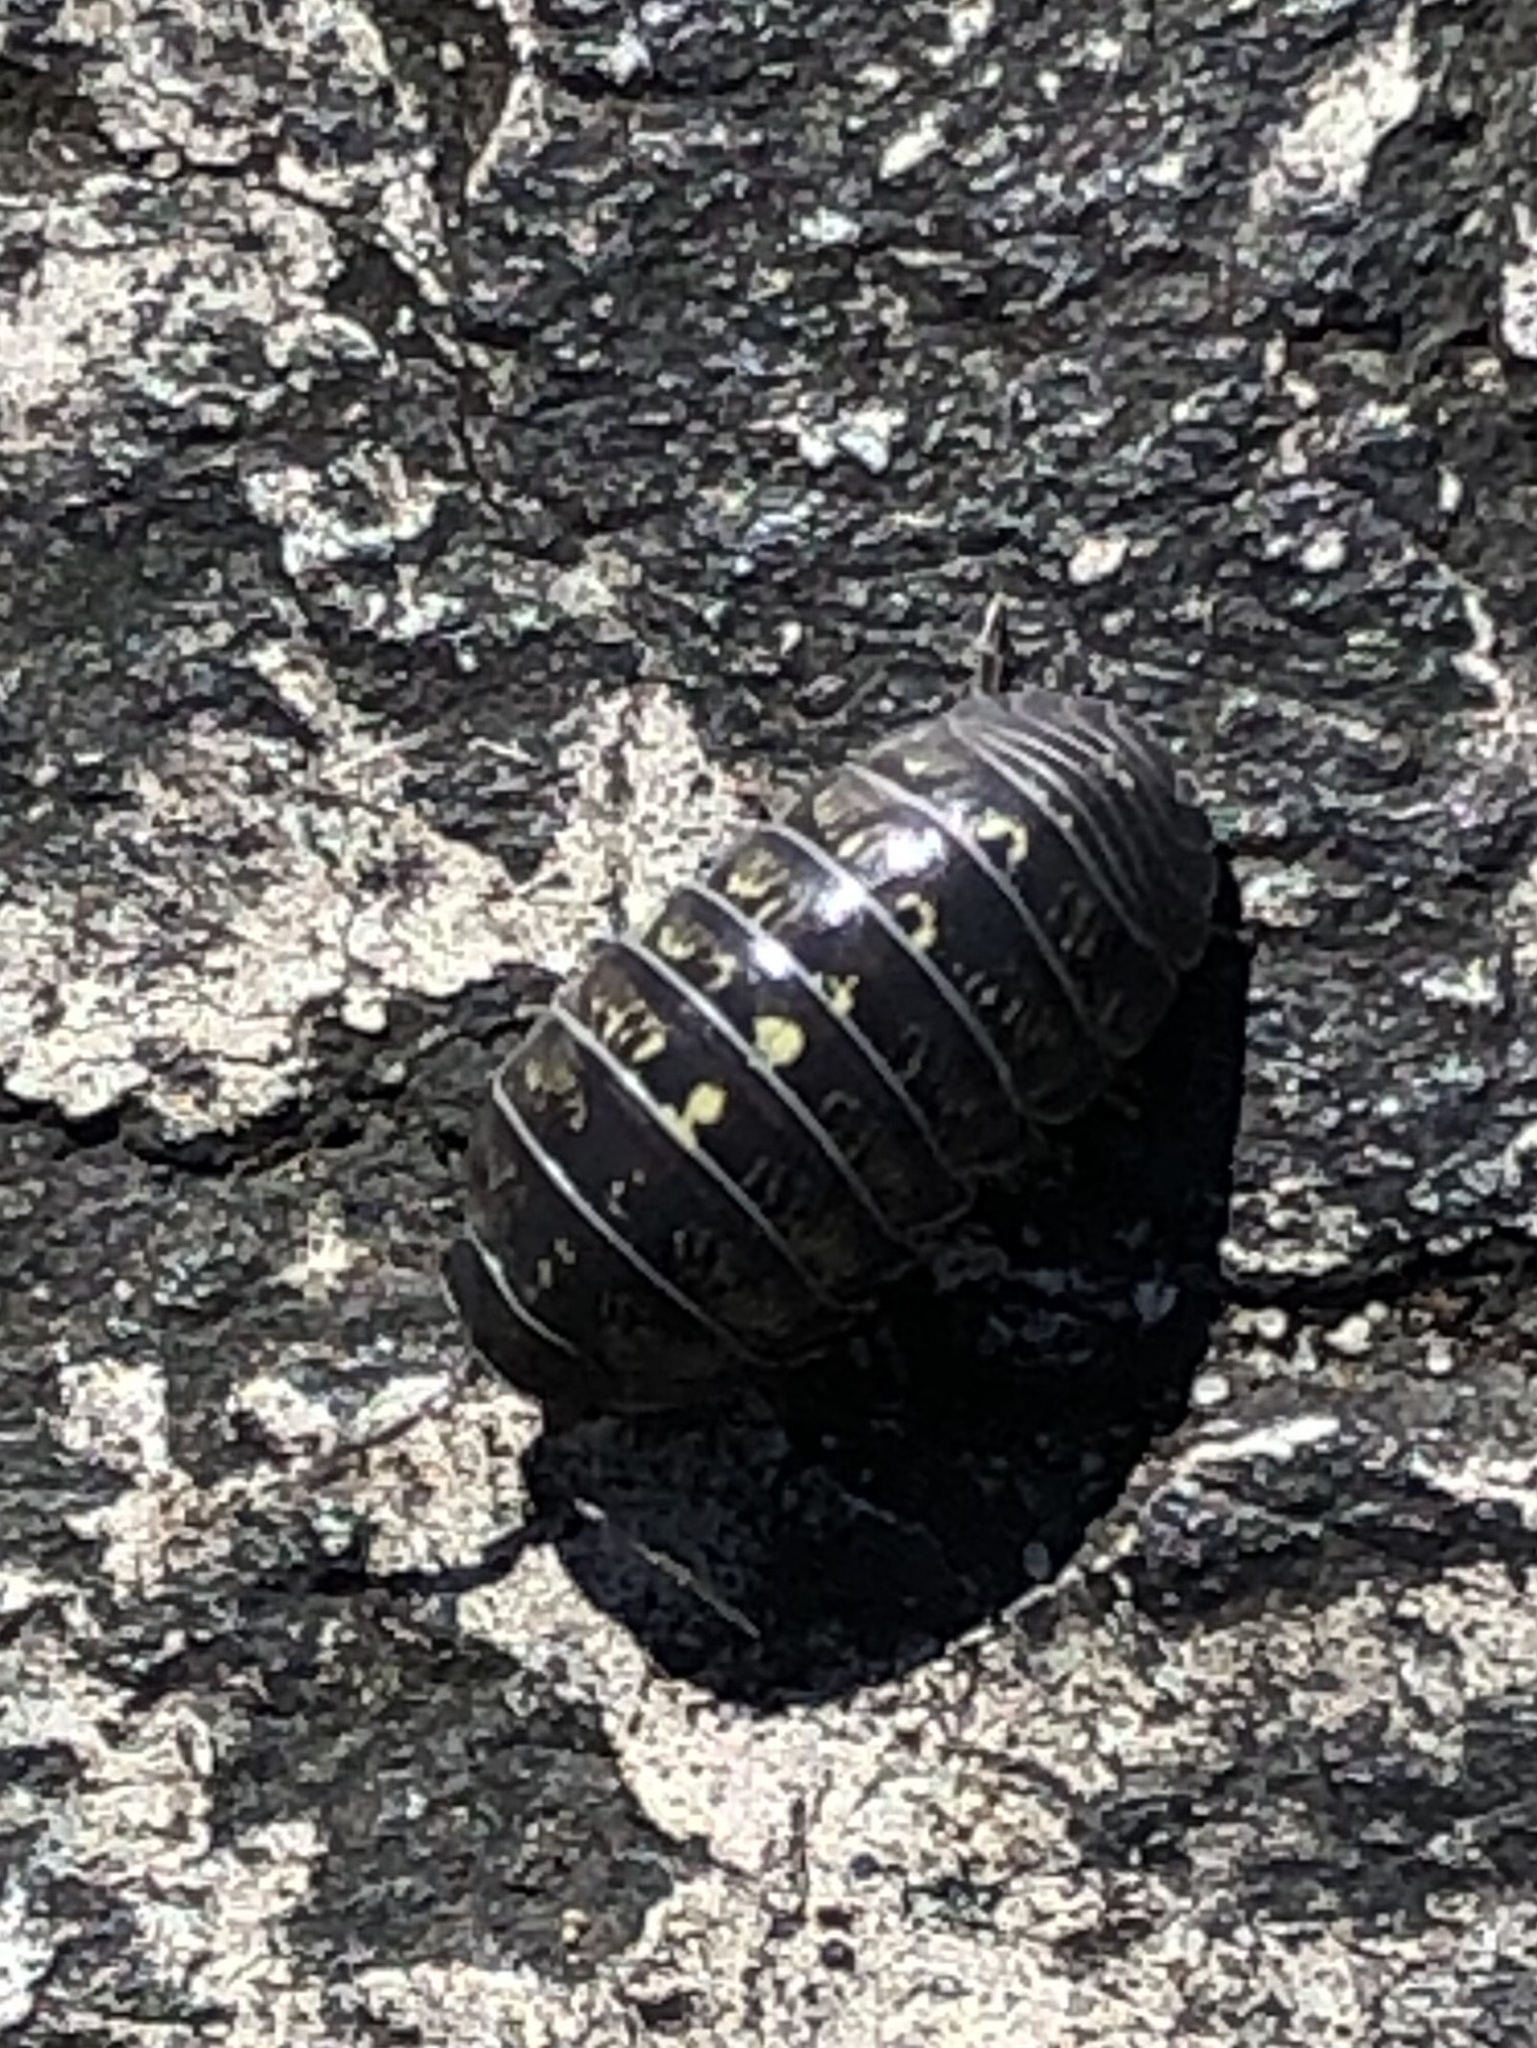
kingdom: Animalia
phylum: Arthropoda
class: Malacostraca
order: Isopoda
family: Armadillidiidae
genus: Armadillidium
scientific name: Armadillidium vulgare
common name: Common pill woodlouse
